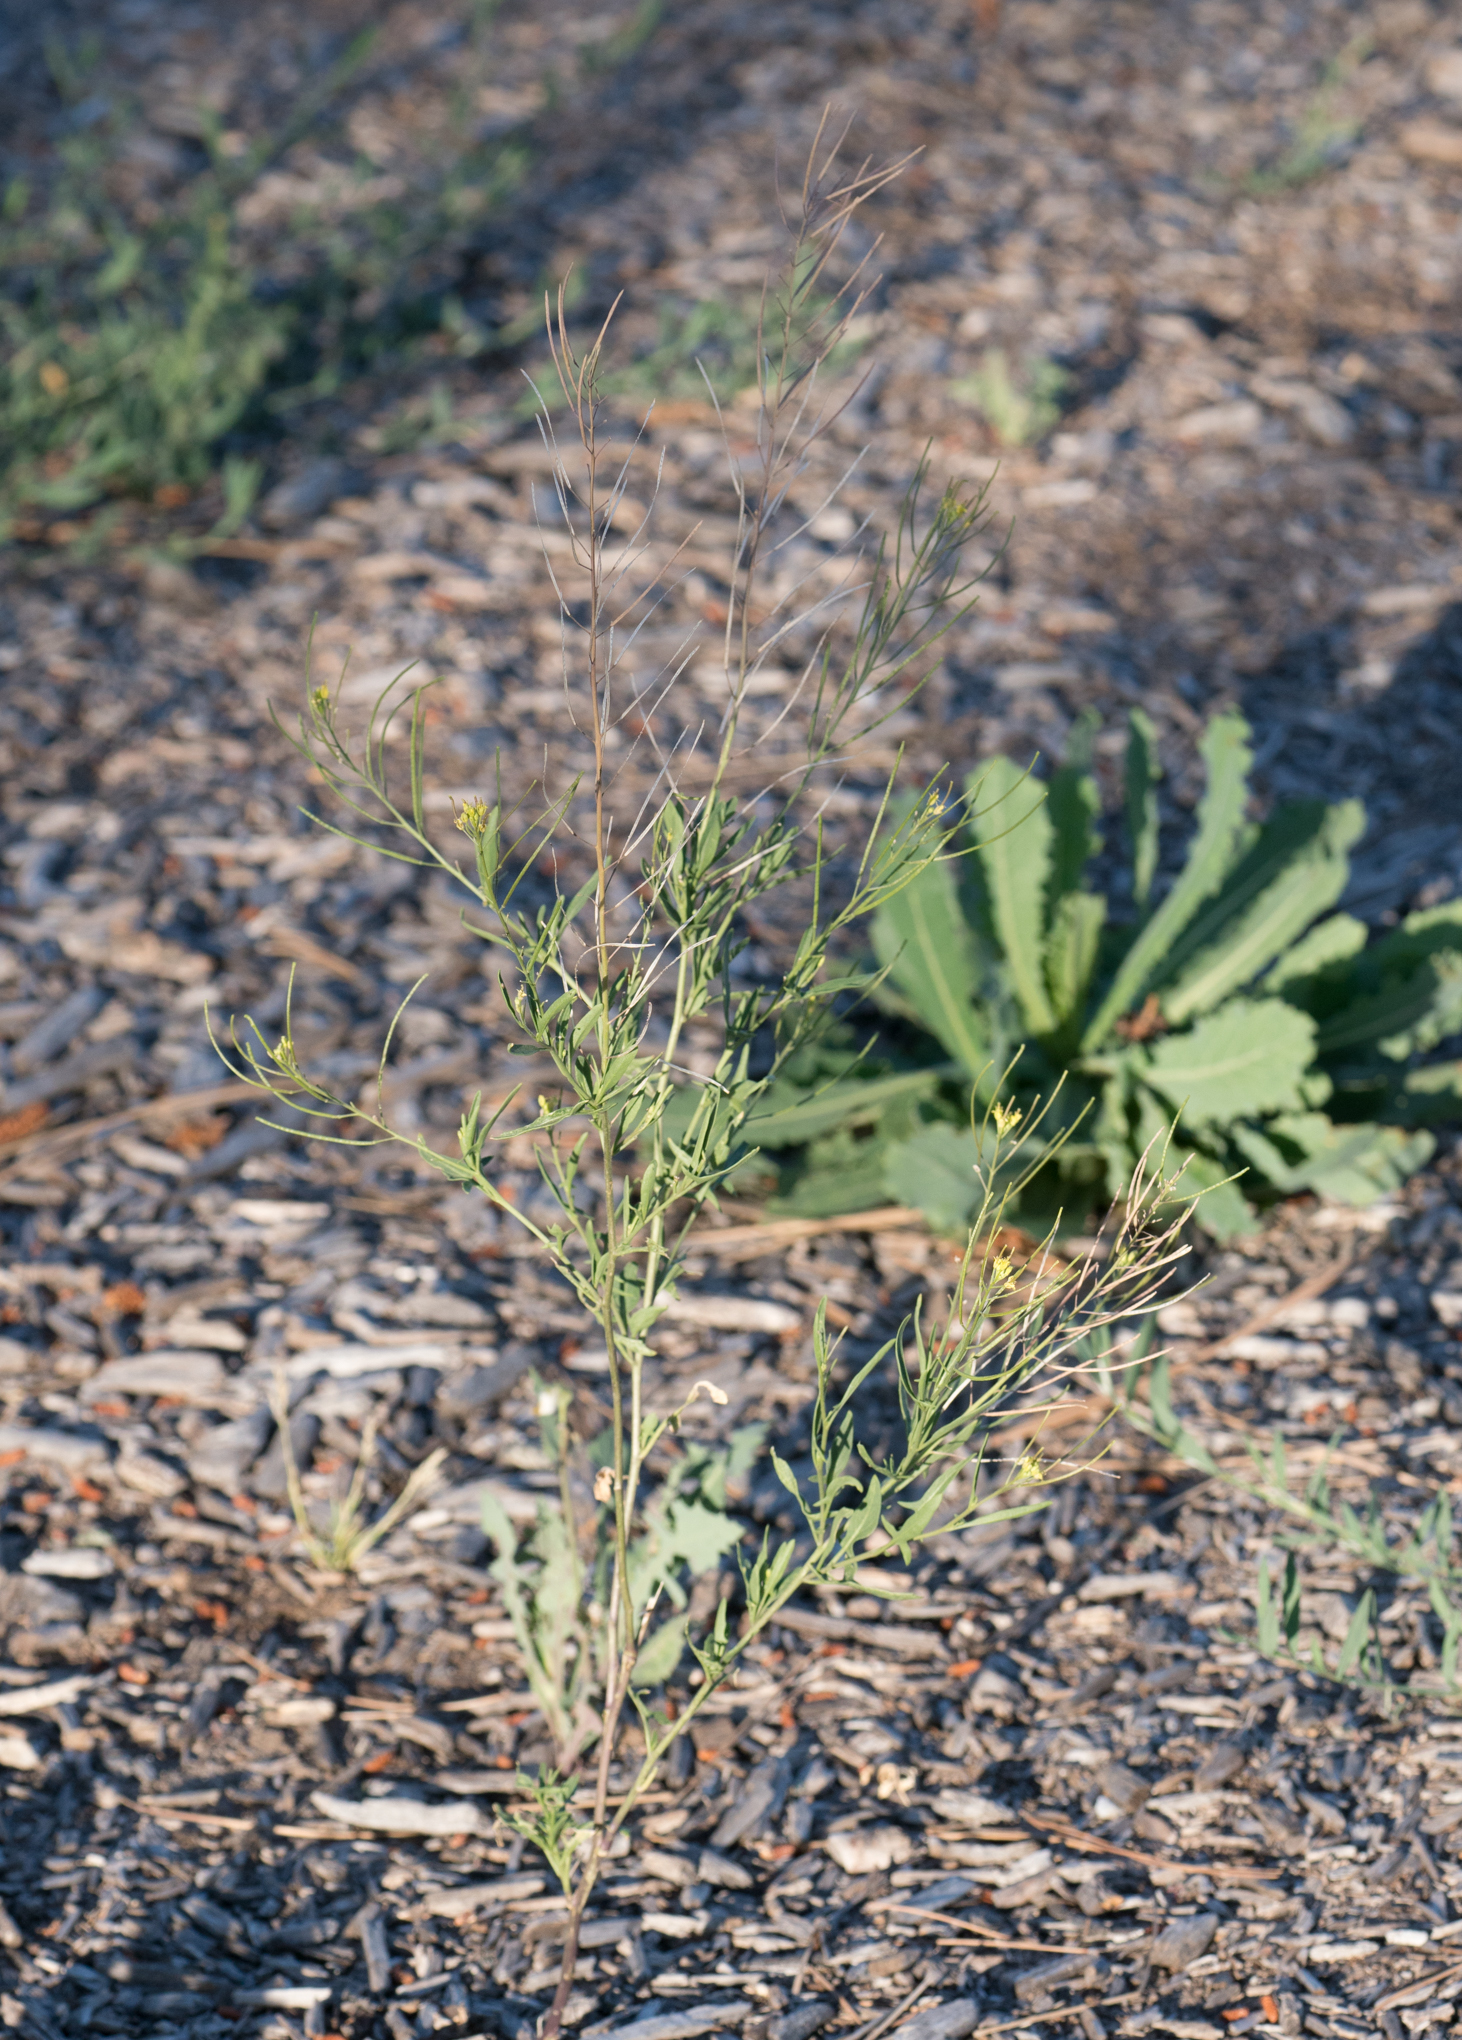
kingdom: Plantae
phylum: Tracheophyta
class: Magnoliopsida
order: Brassicales
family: Brassicaceae
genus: Sisymbrium
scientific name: Sisymbrium irio
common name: London rocket
